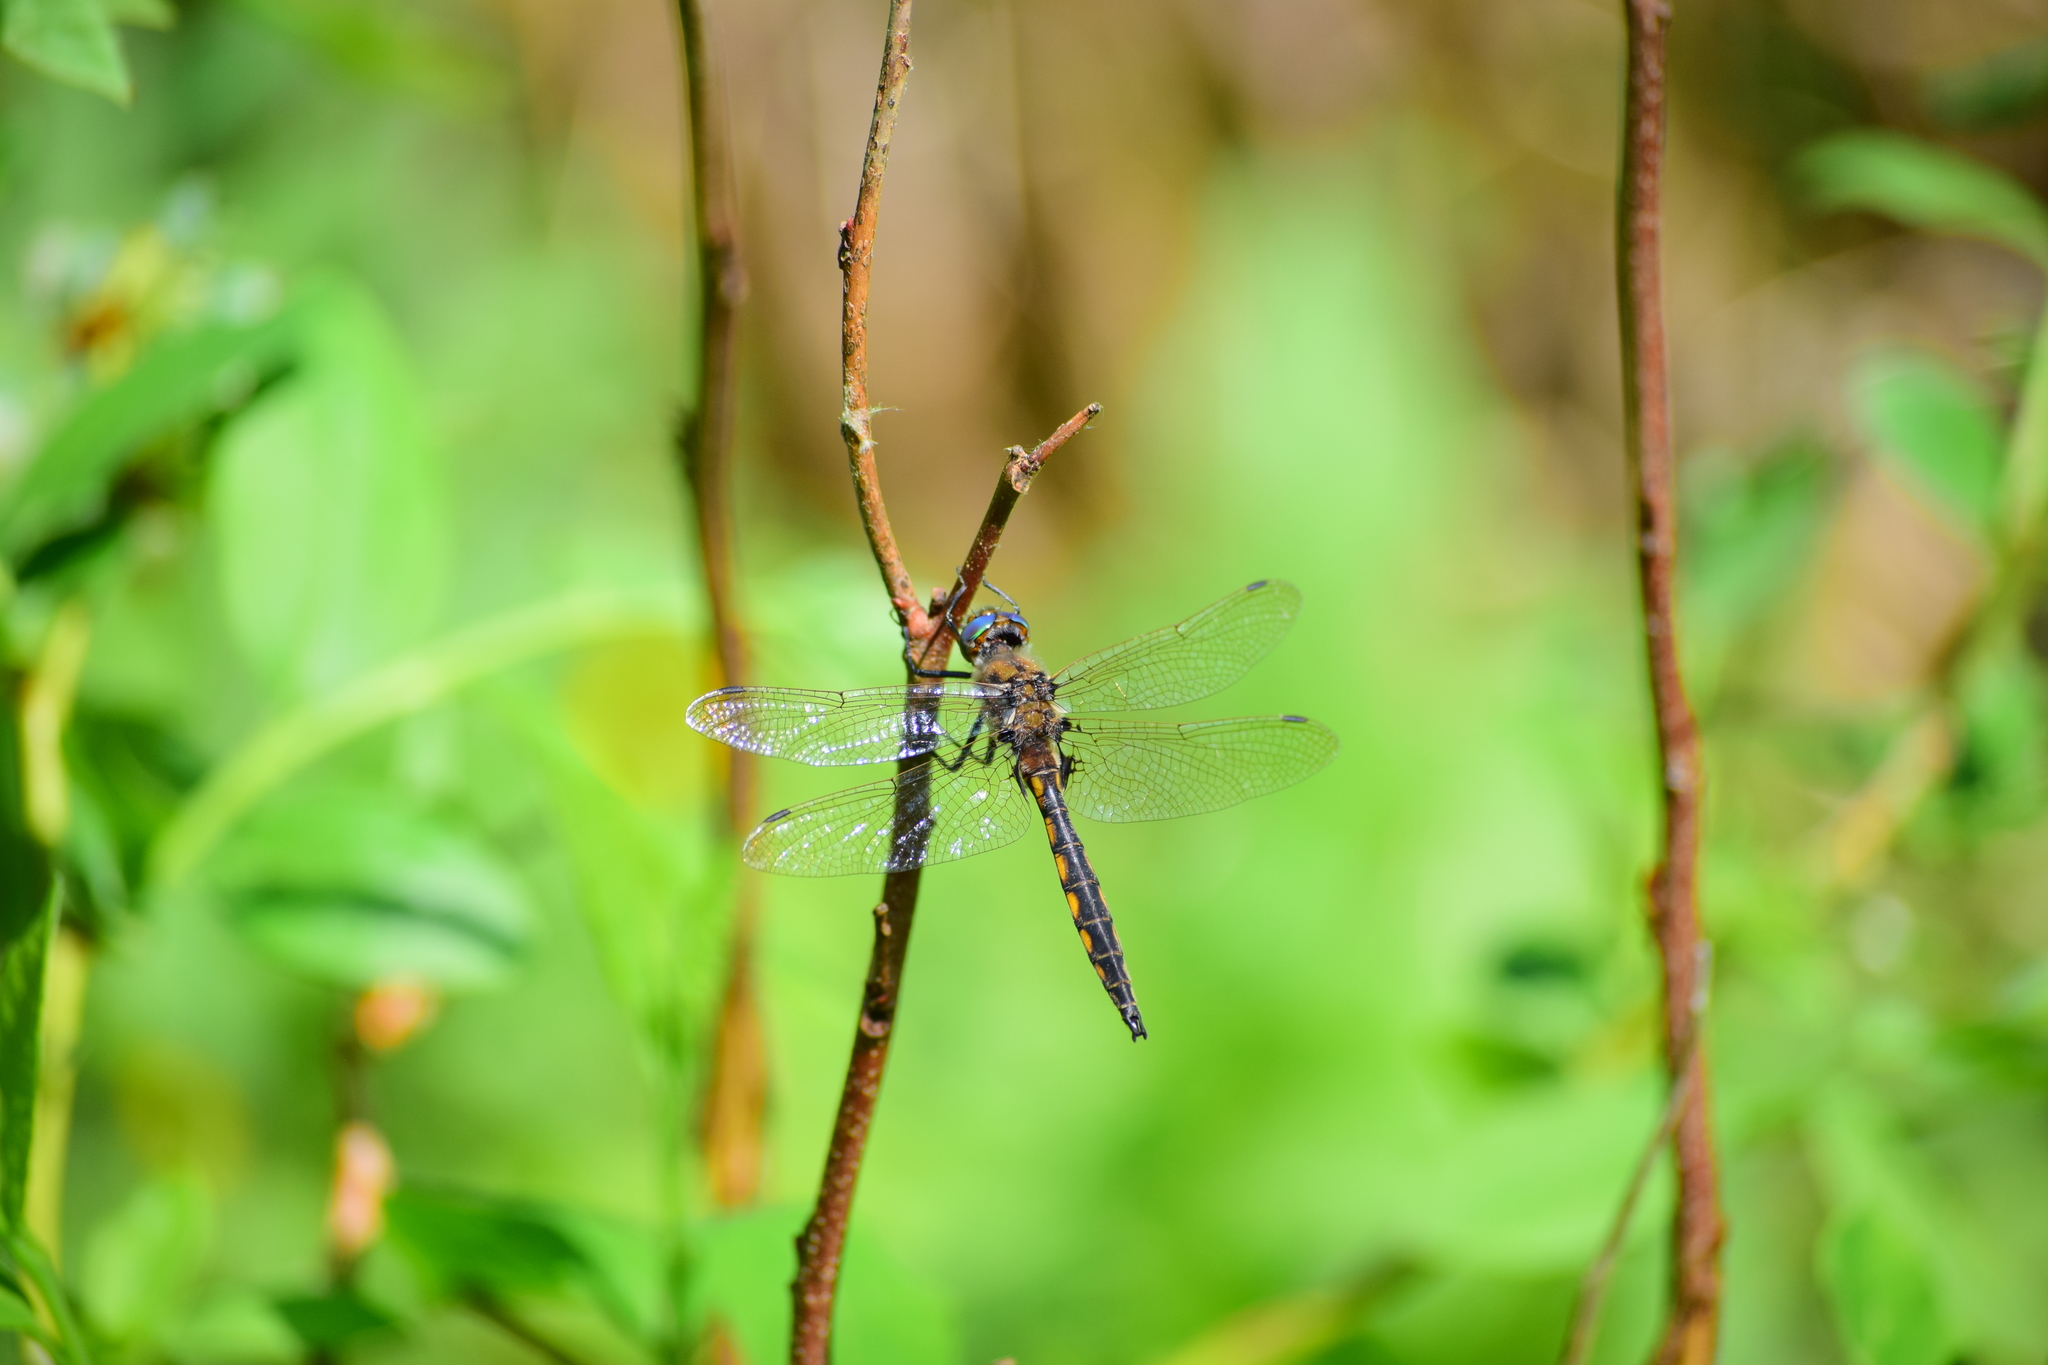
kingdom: Animalia
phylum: Arthropoda
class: Insecta
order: Odonata
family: Corduliidae
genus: Epitheca
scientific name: Epitheca canis
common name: Beaverpond baskettail
